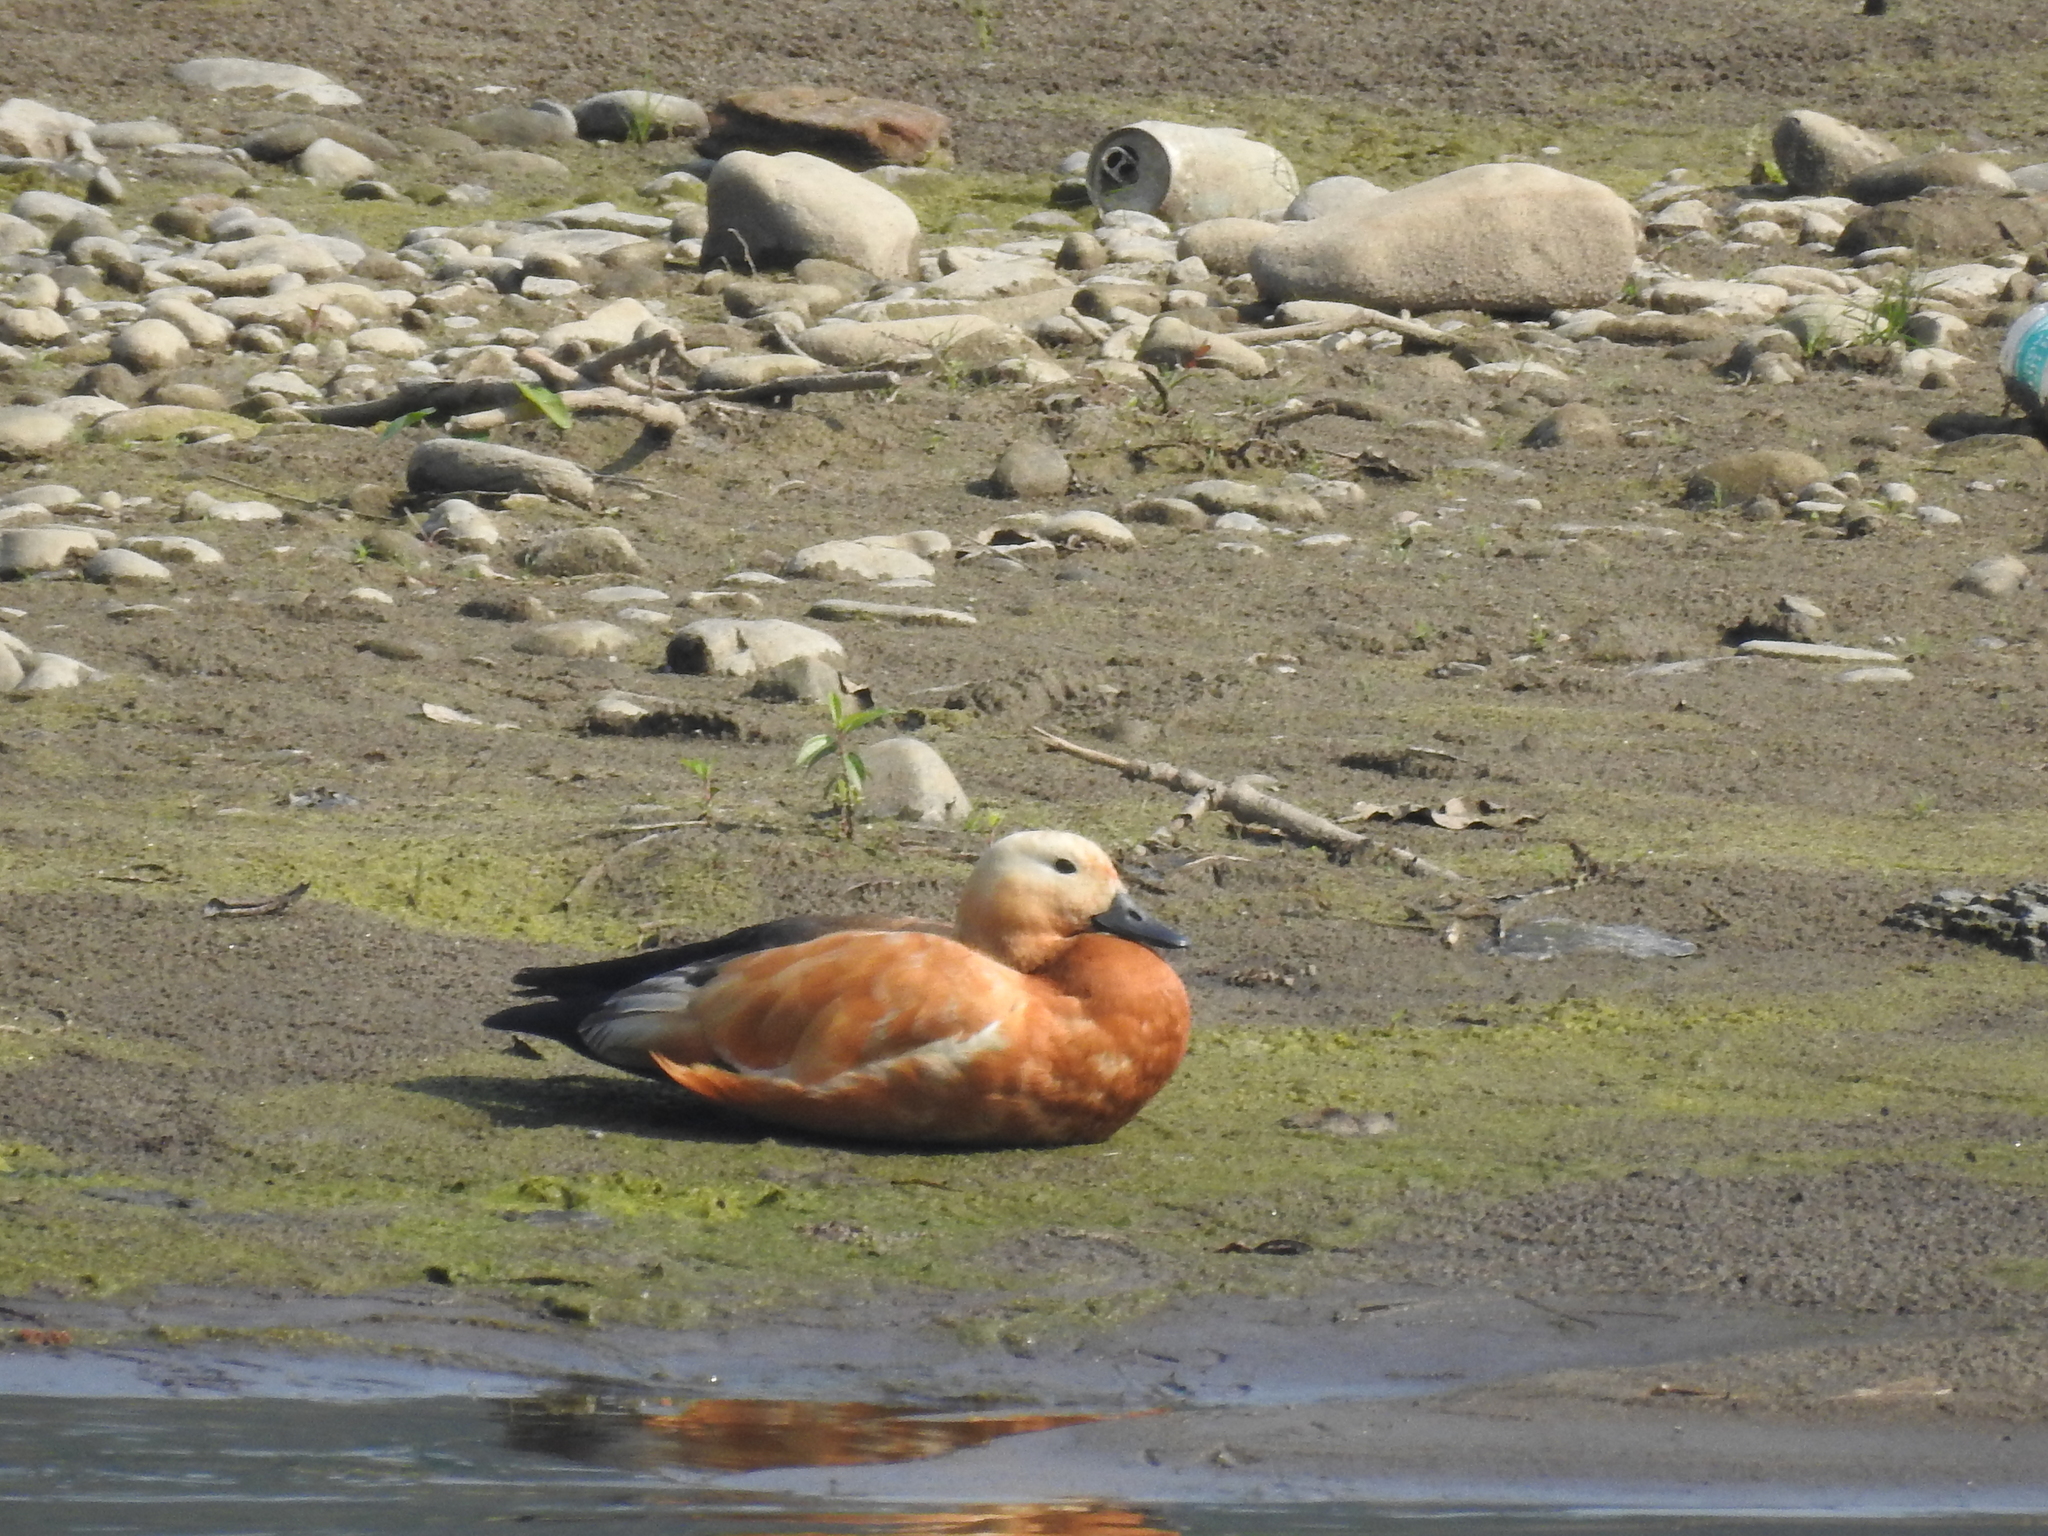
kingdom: Animalia
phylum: Chordata
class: Aves
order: Anseriformes
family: Anatidae
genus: Tadorna
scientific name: Tadorna ferruginea
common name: Ruddy shelduck
